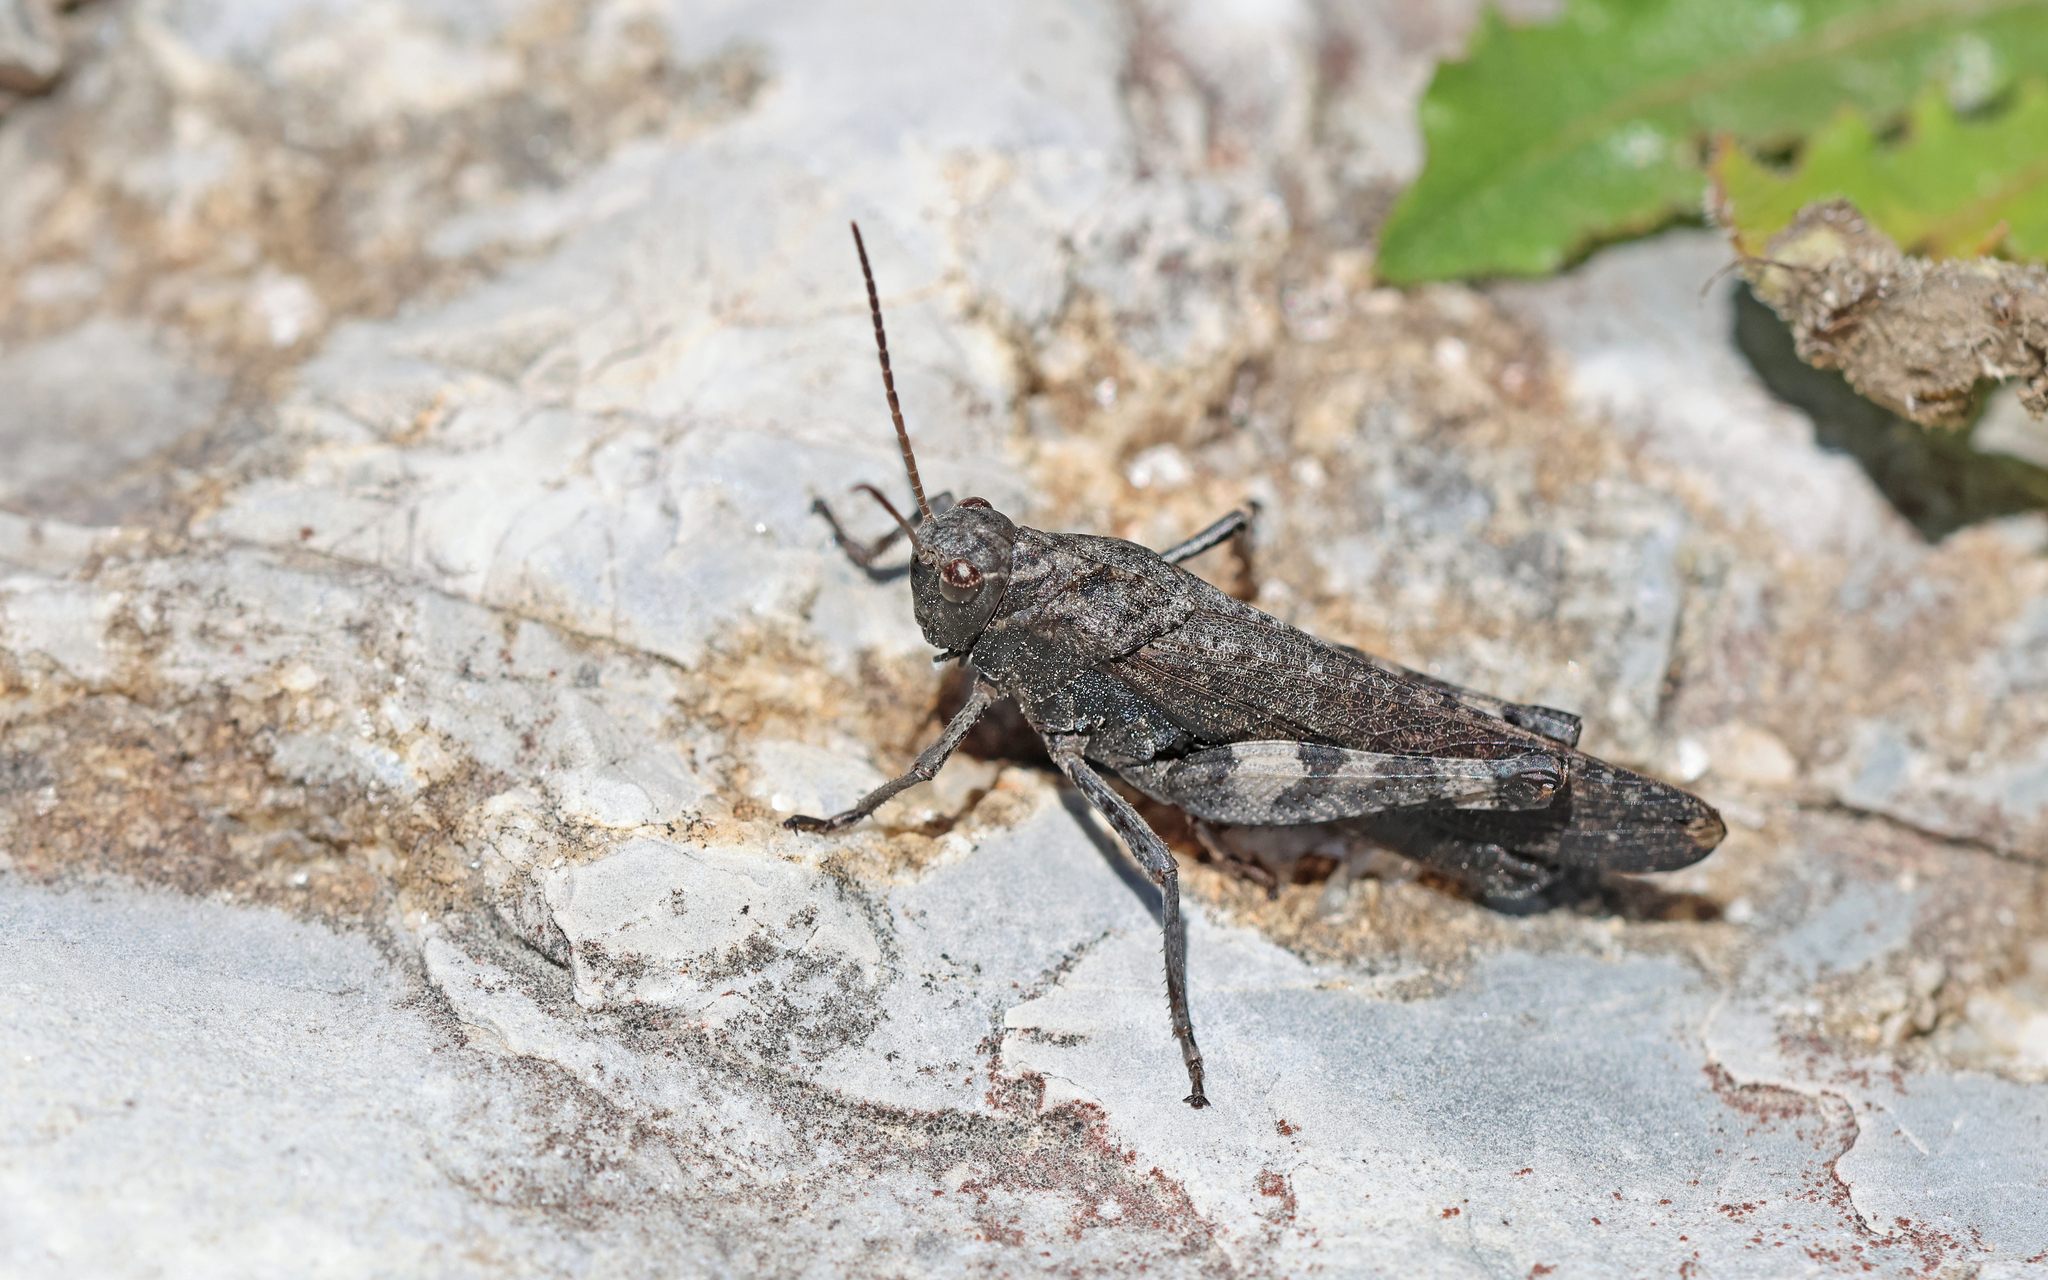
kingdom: Animalia
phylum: Arthropoda
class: Insecta
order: Orthoptera
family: Acrididae
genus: Psophus
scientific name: Psophus stridulus
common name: Rattle grasshopper
